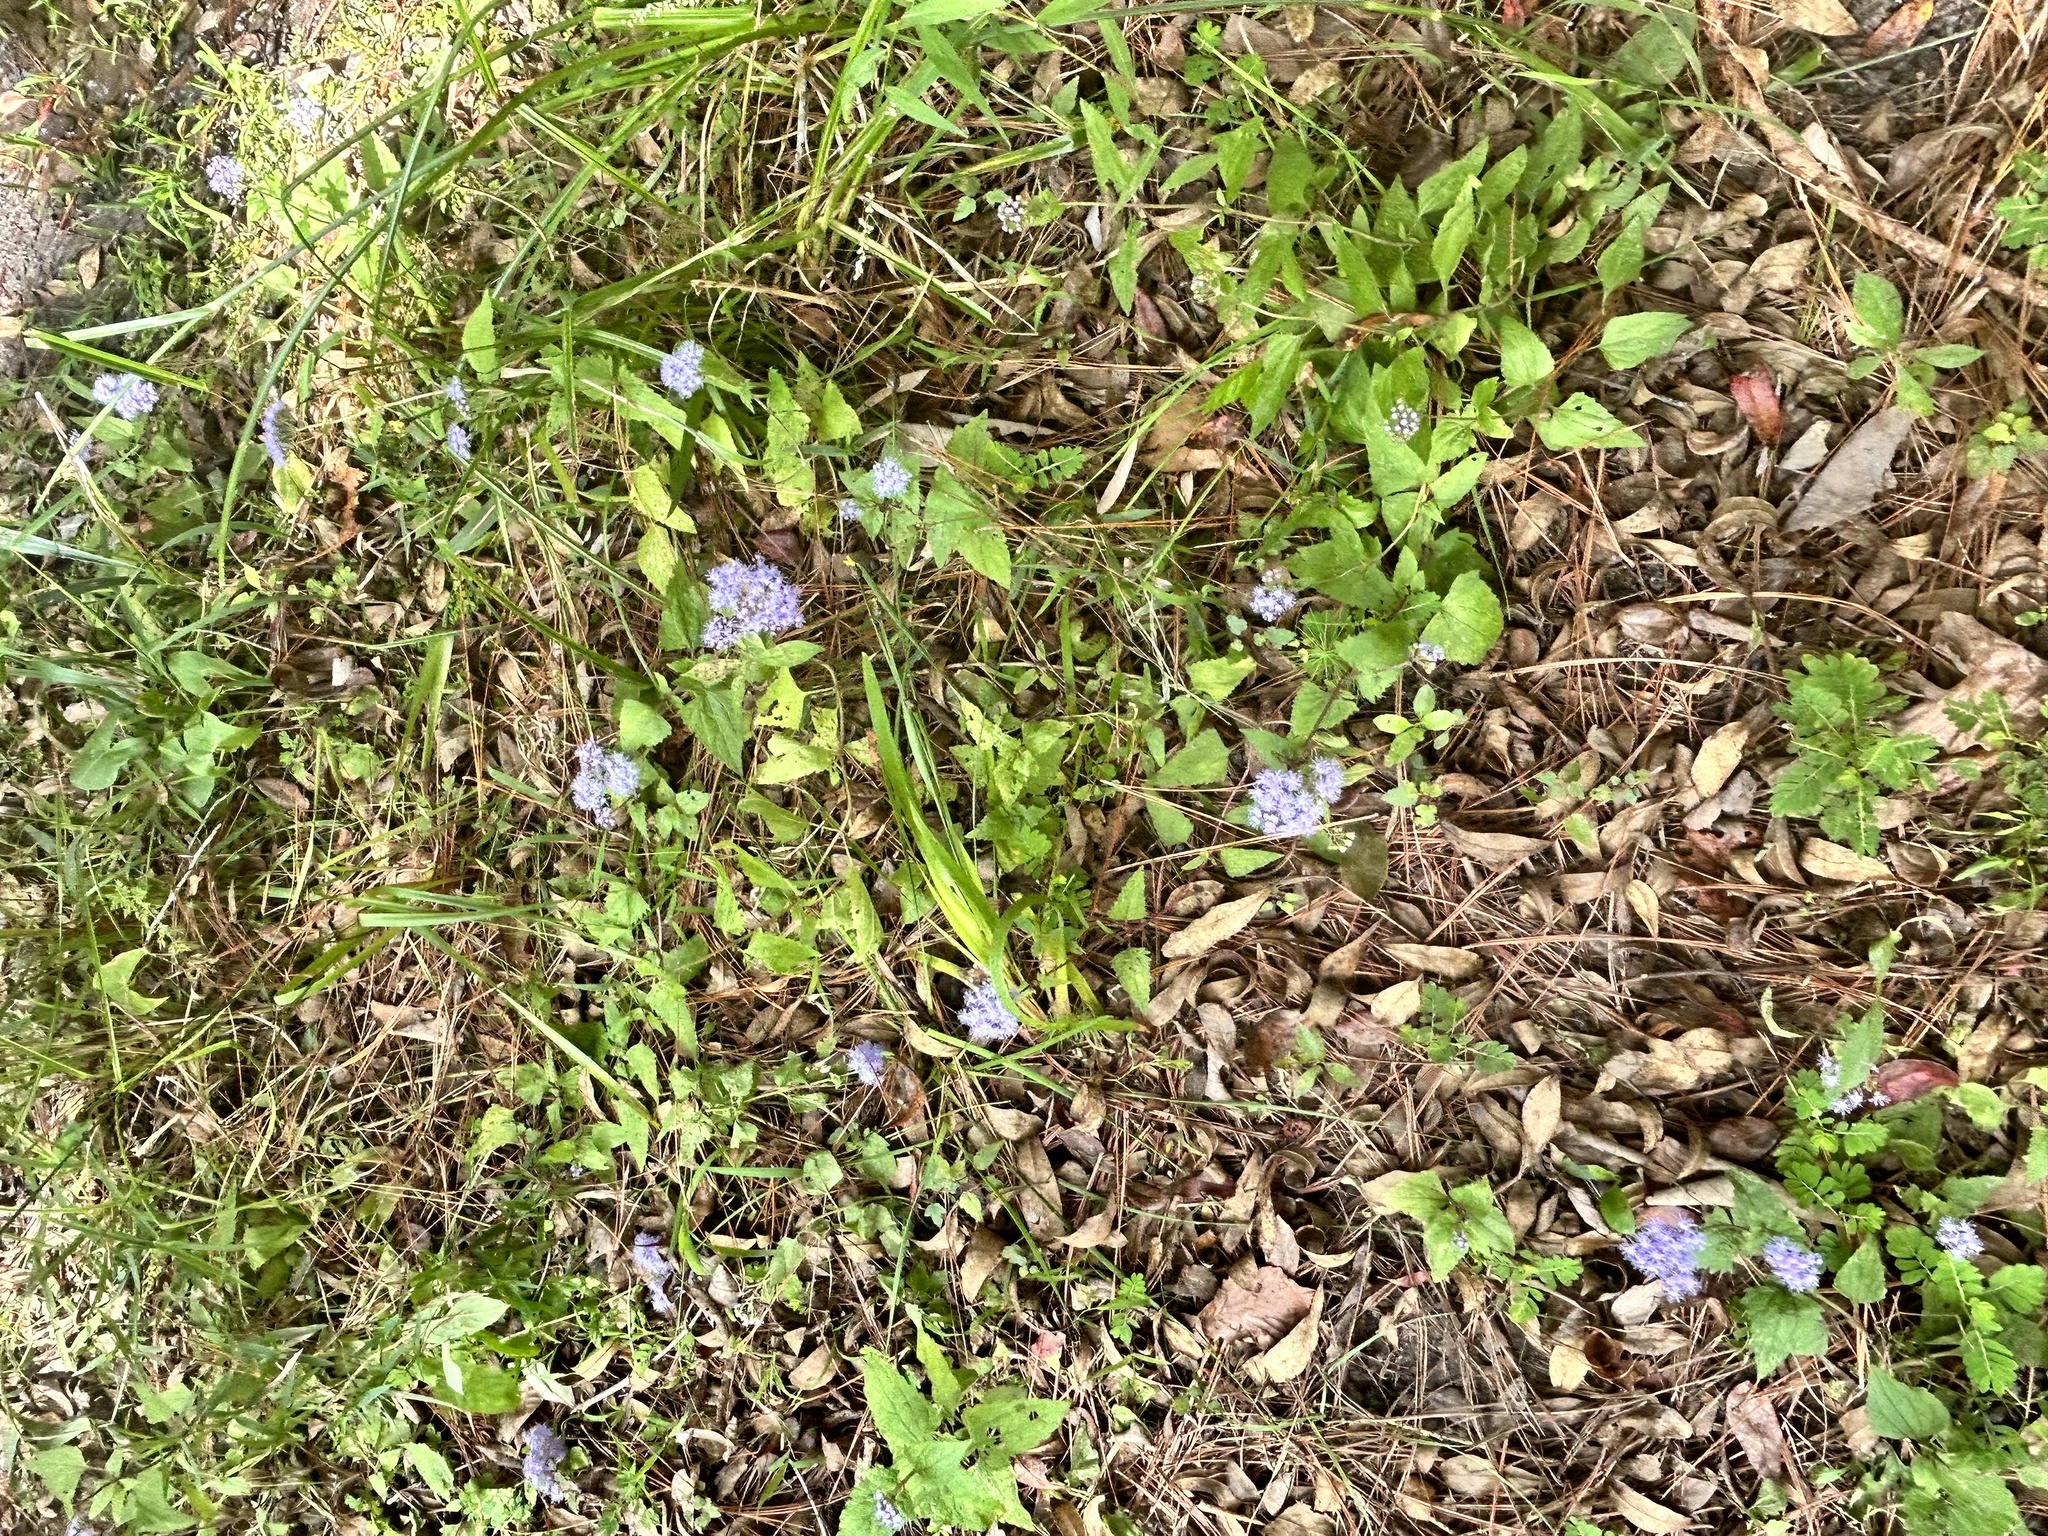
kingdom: Plantae
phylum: Tracheophyta
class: Magnoliopsida
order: Asterales
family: Asteraceae
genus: Conoclinium
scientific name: Conoclinium coelestinum
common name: Blue mistflower
